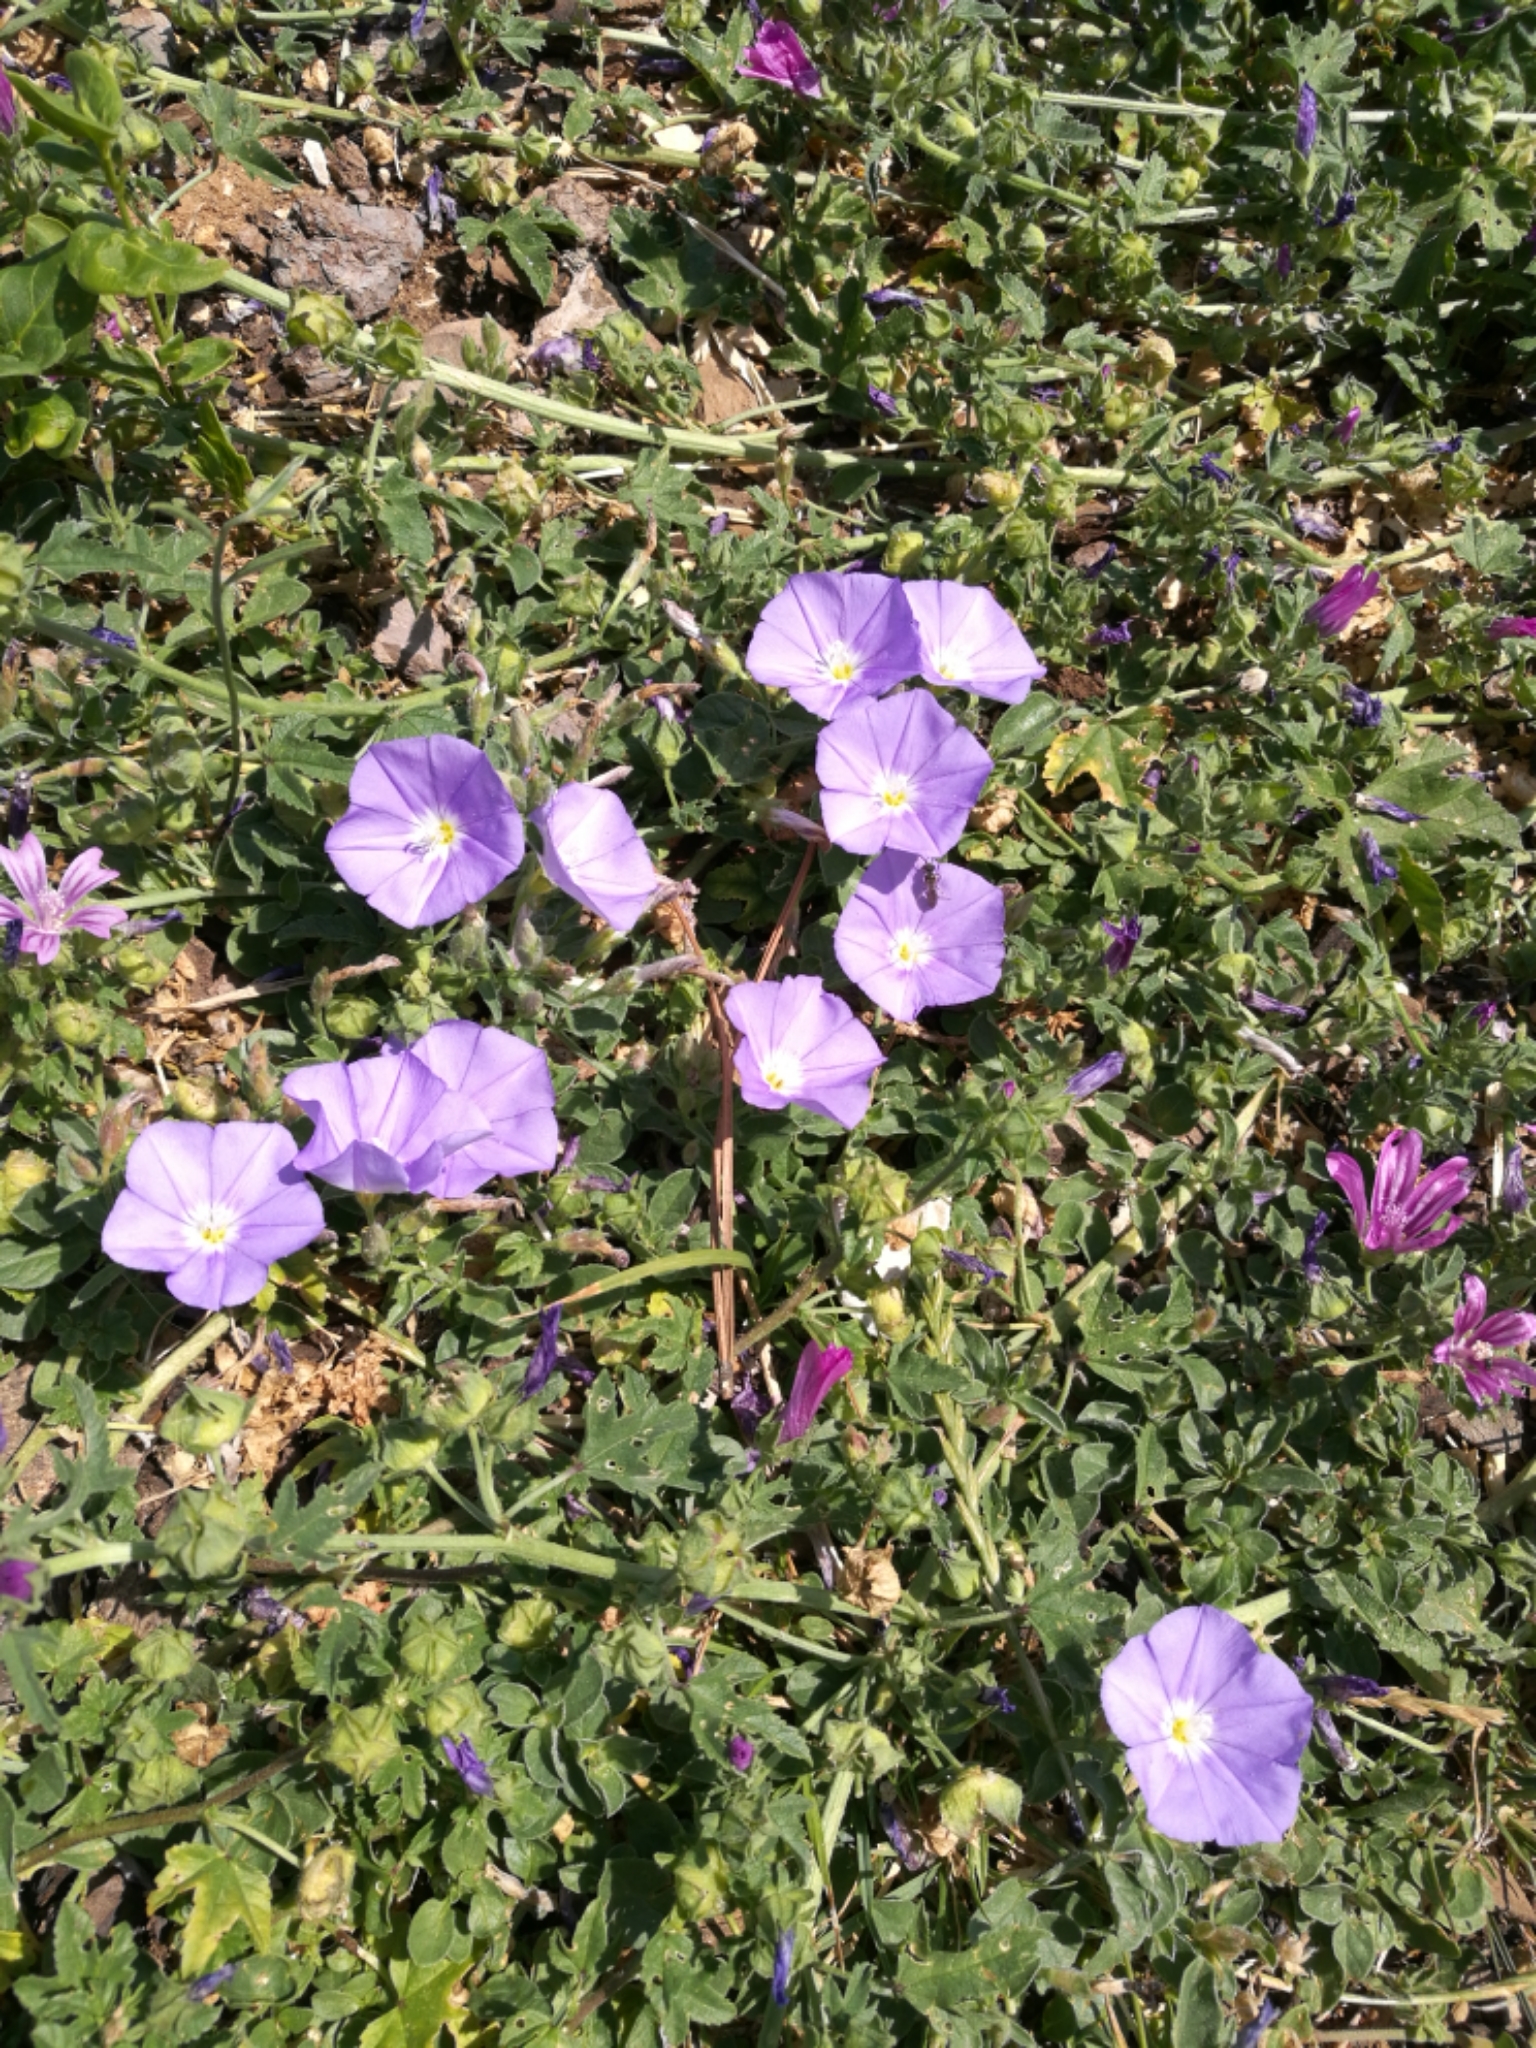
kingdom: Plantae
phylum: Tracheophyta
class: Magnoliopsida
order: Solanales
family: Convolvulaceae
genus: Convolvulus
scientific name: Convolvulus sabatius
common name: Ground blue-convolvulus
